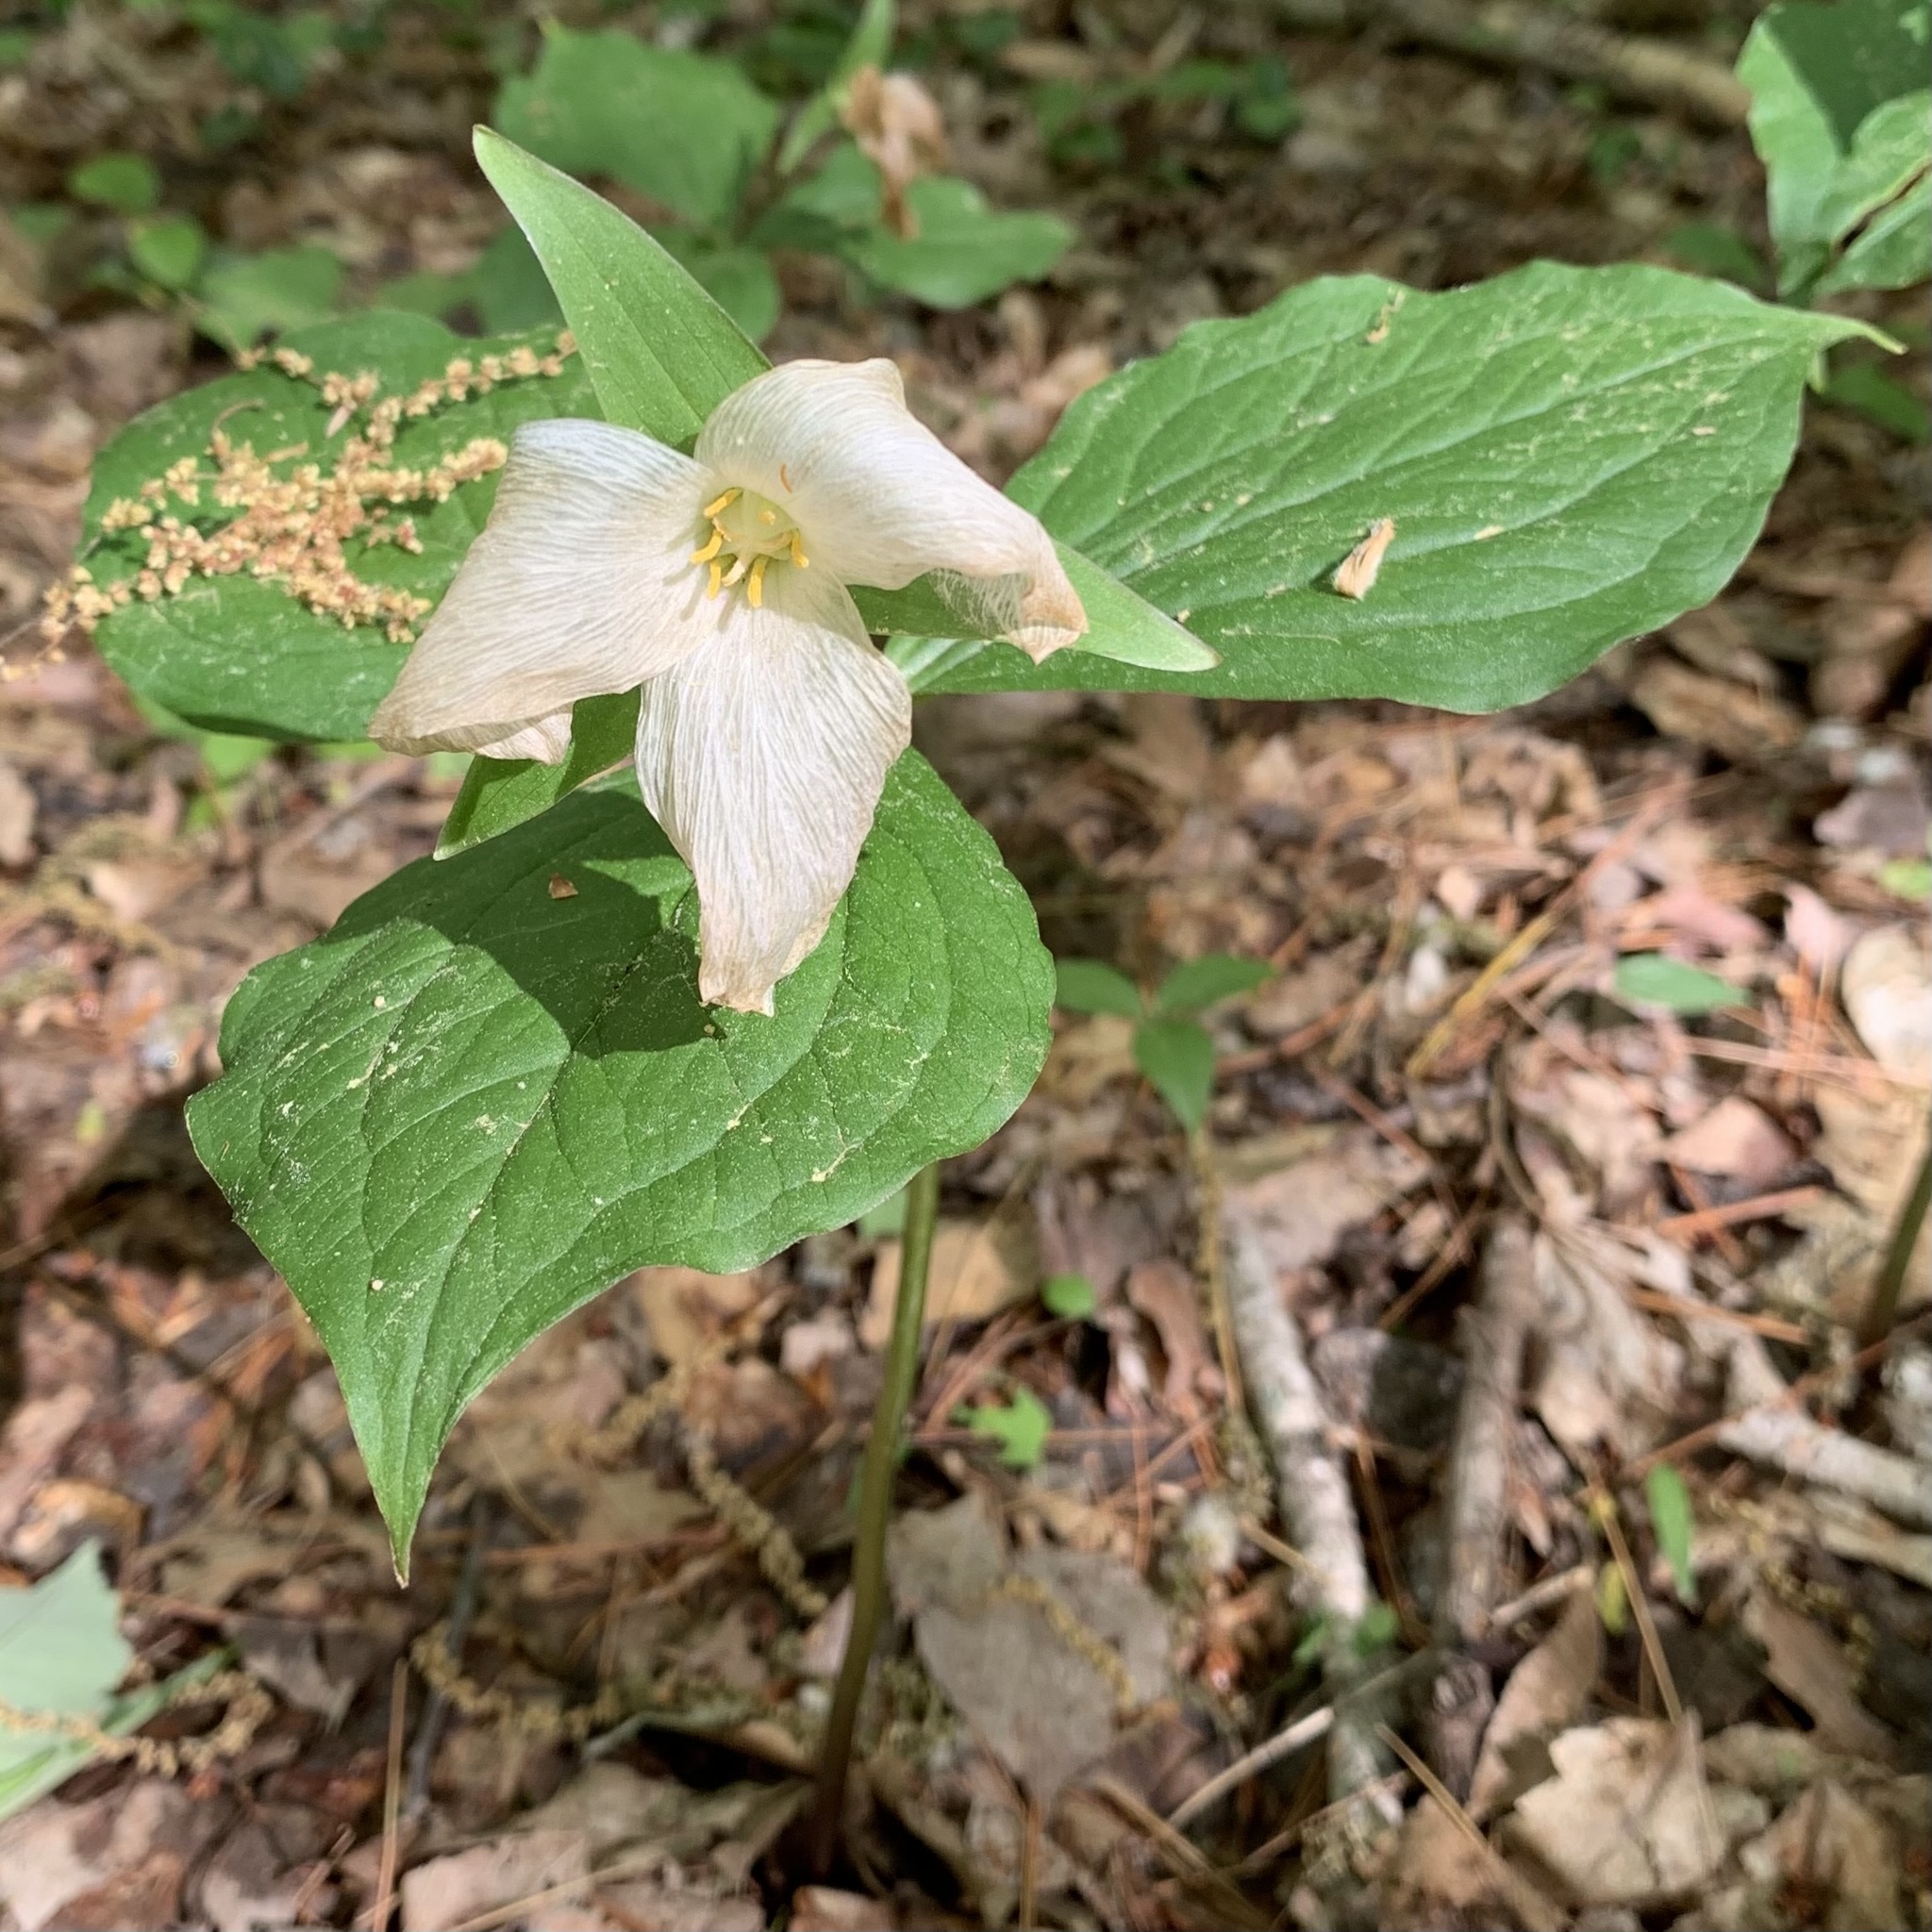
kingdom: Plantae
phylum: Tracheophyta
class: Liliopsida
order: Liliales
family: Melanthiaceae
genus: Trillium
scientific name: Trillium grandiflorum
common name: Great white trillium
